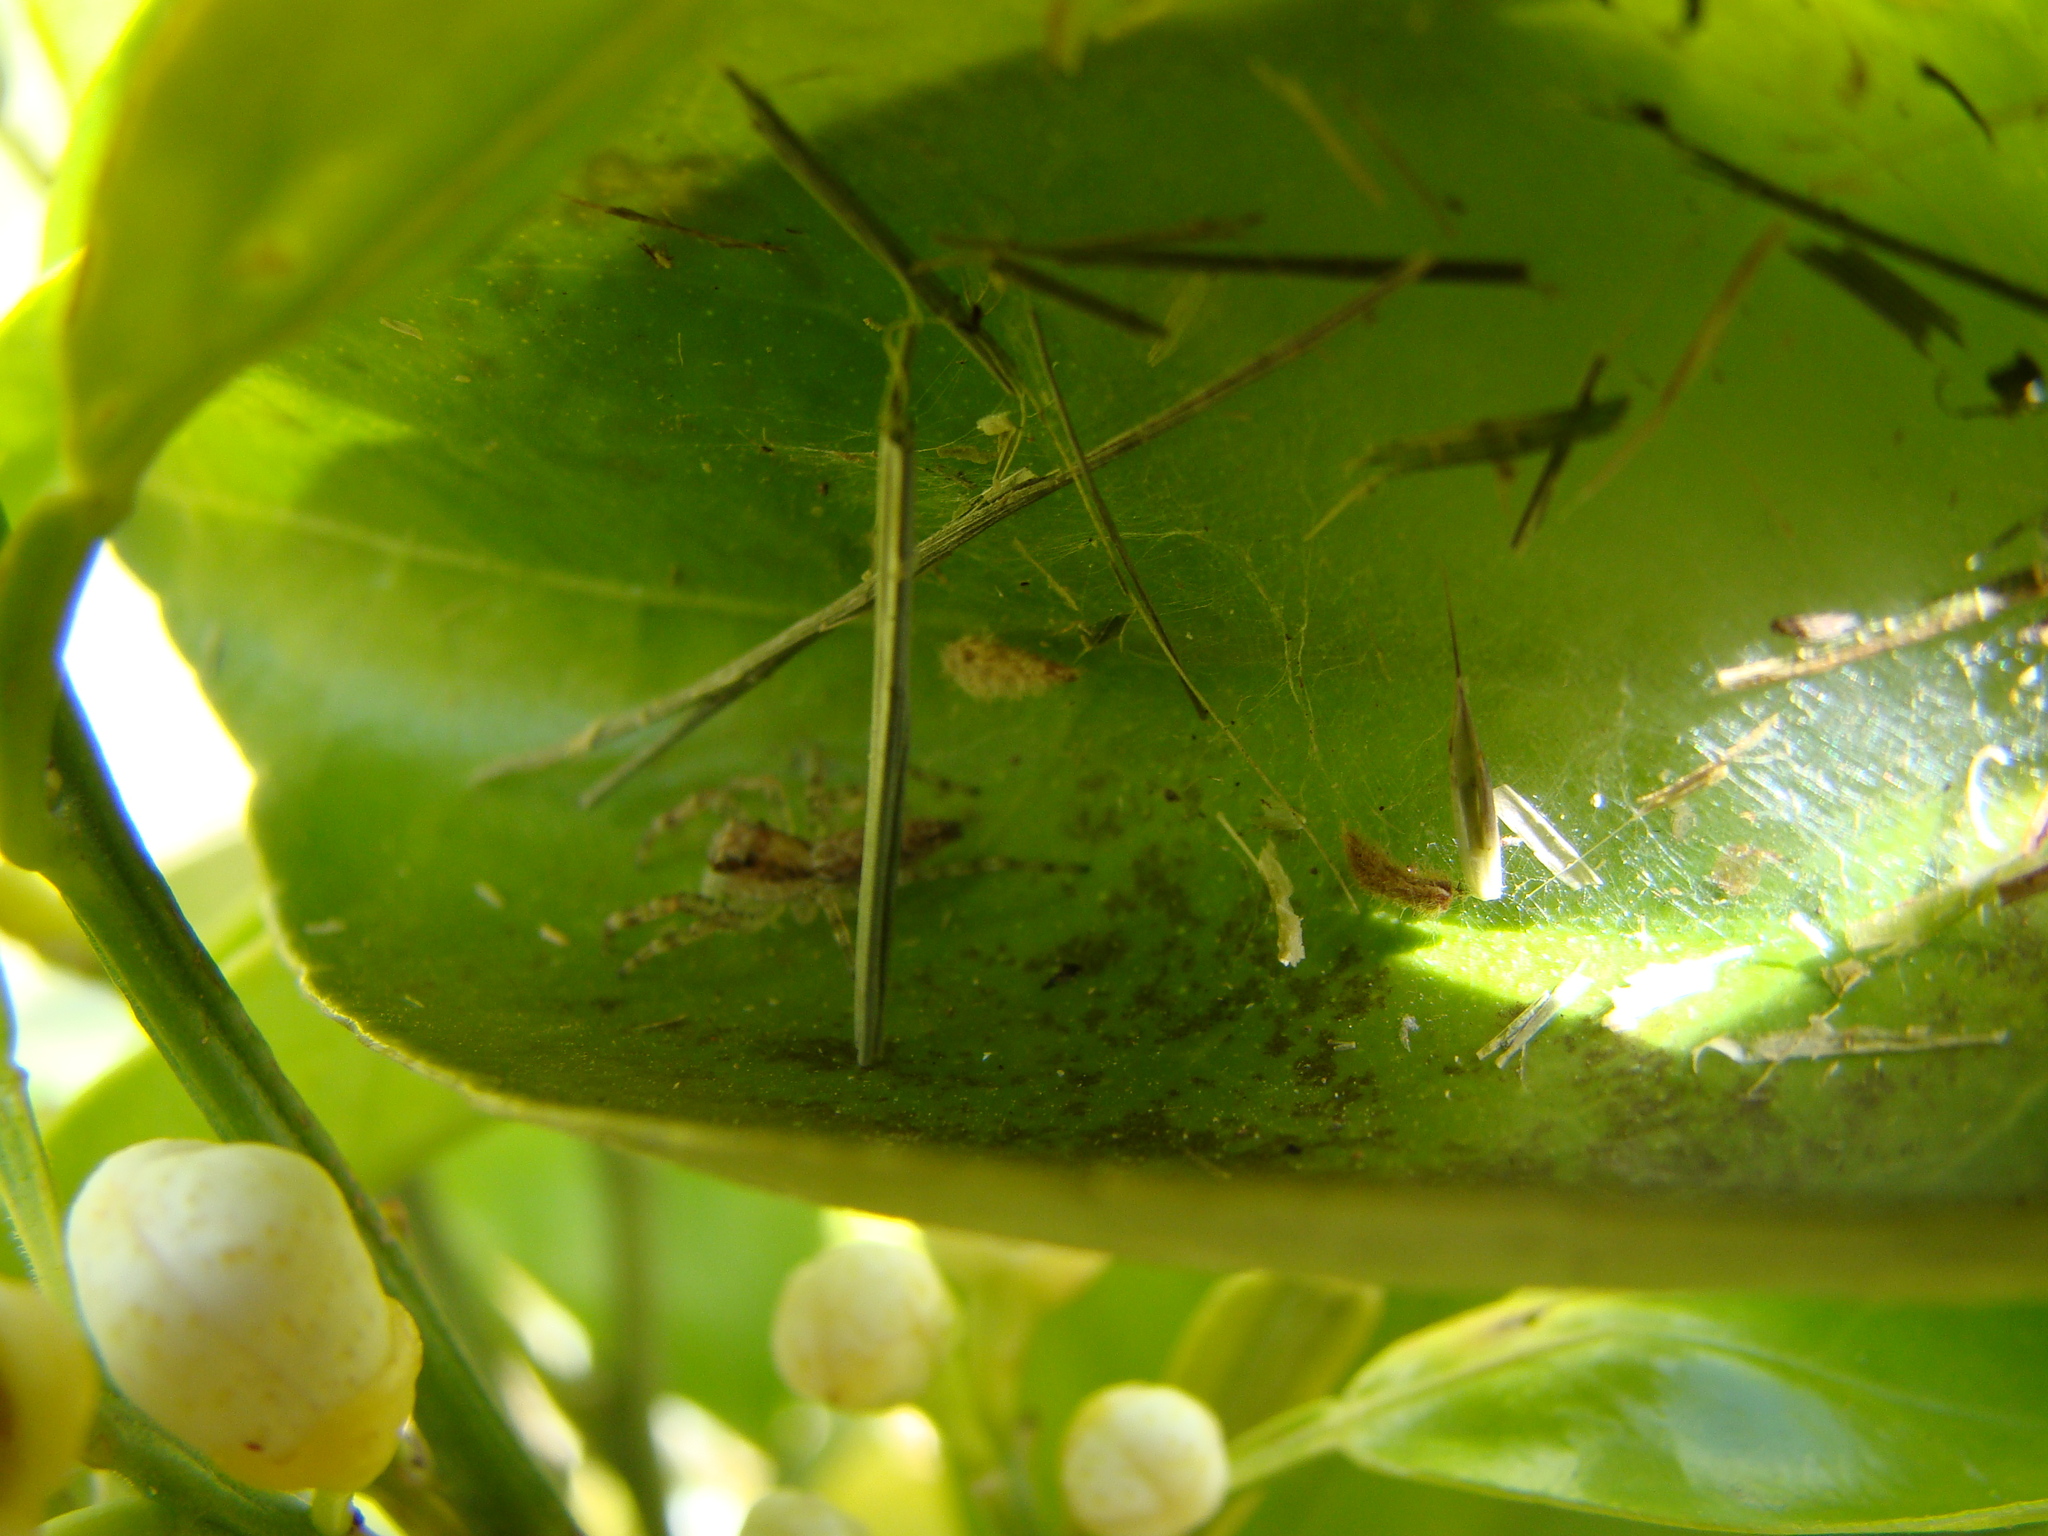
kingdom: Animalia
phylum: Arthropoda
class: Arachnida
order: Araneae
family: Salticidae
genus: Helpis
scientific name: Helpis minitabunda
